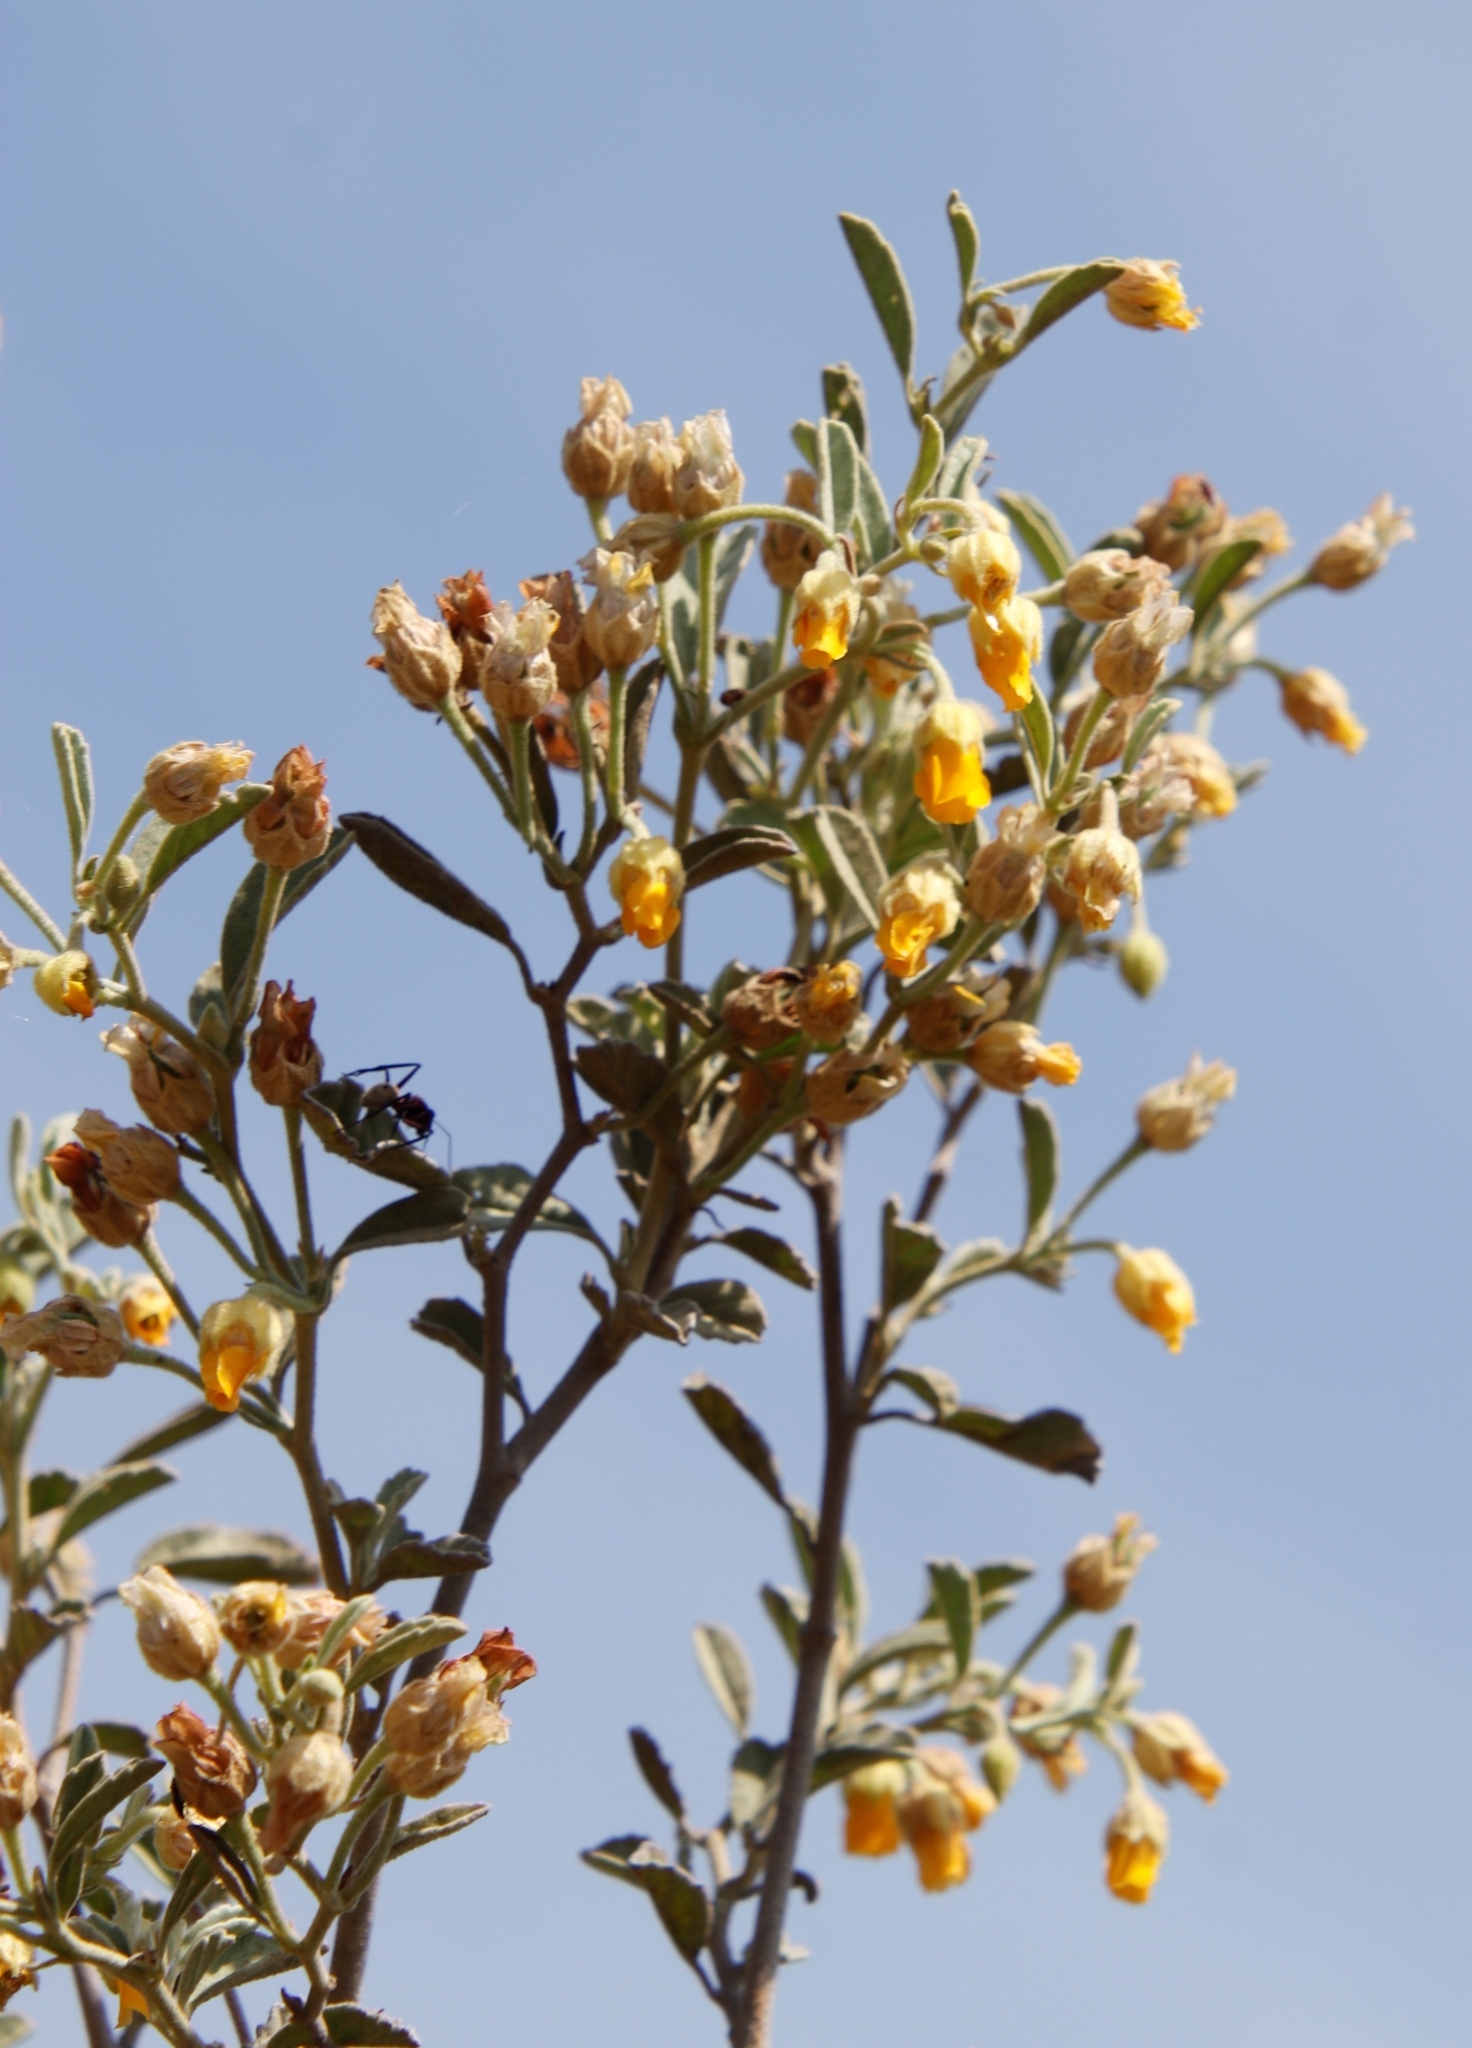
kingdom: Plantae
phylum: Tracheophyta
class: Magnoliopsida
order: Malvales
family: Malvaceae
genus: Hermannia
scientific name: Hermannia incana
